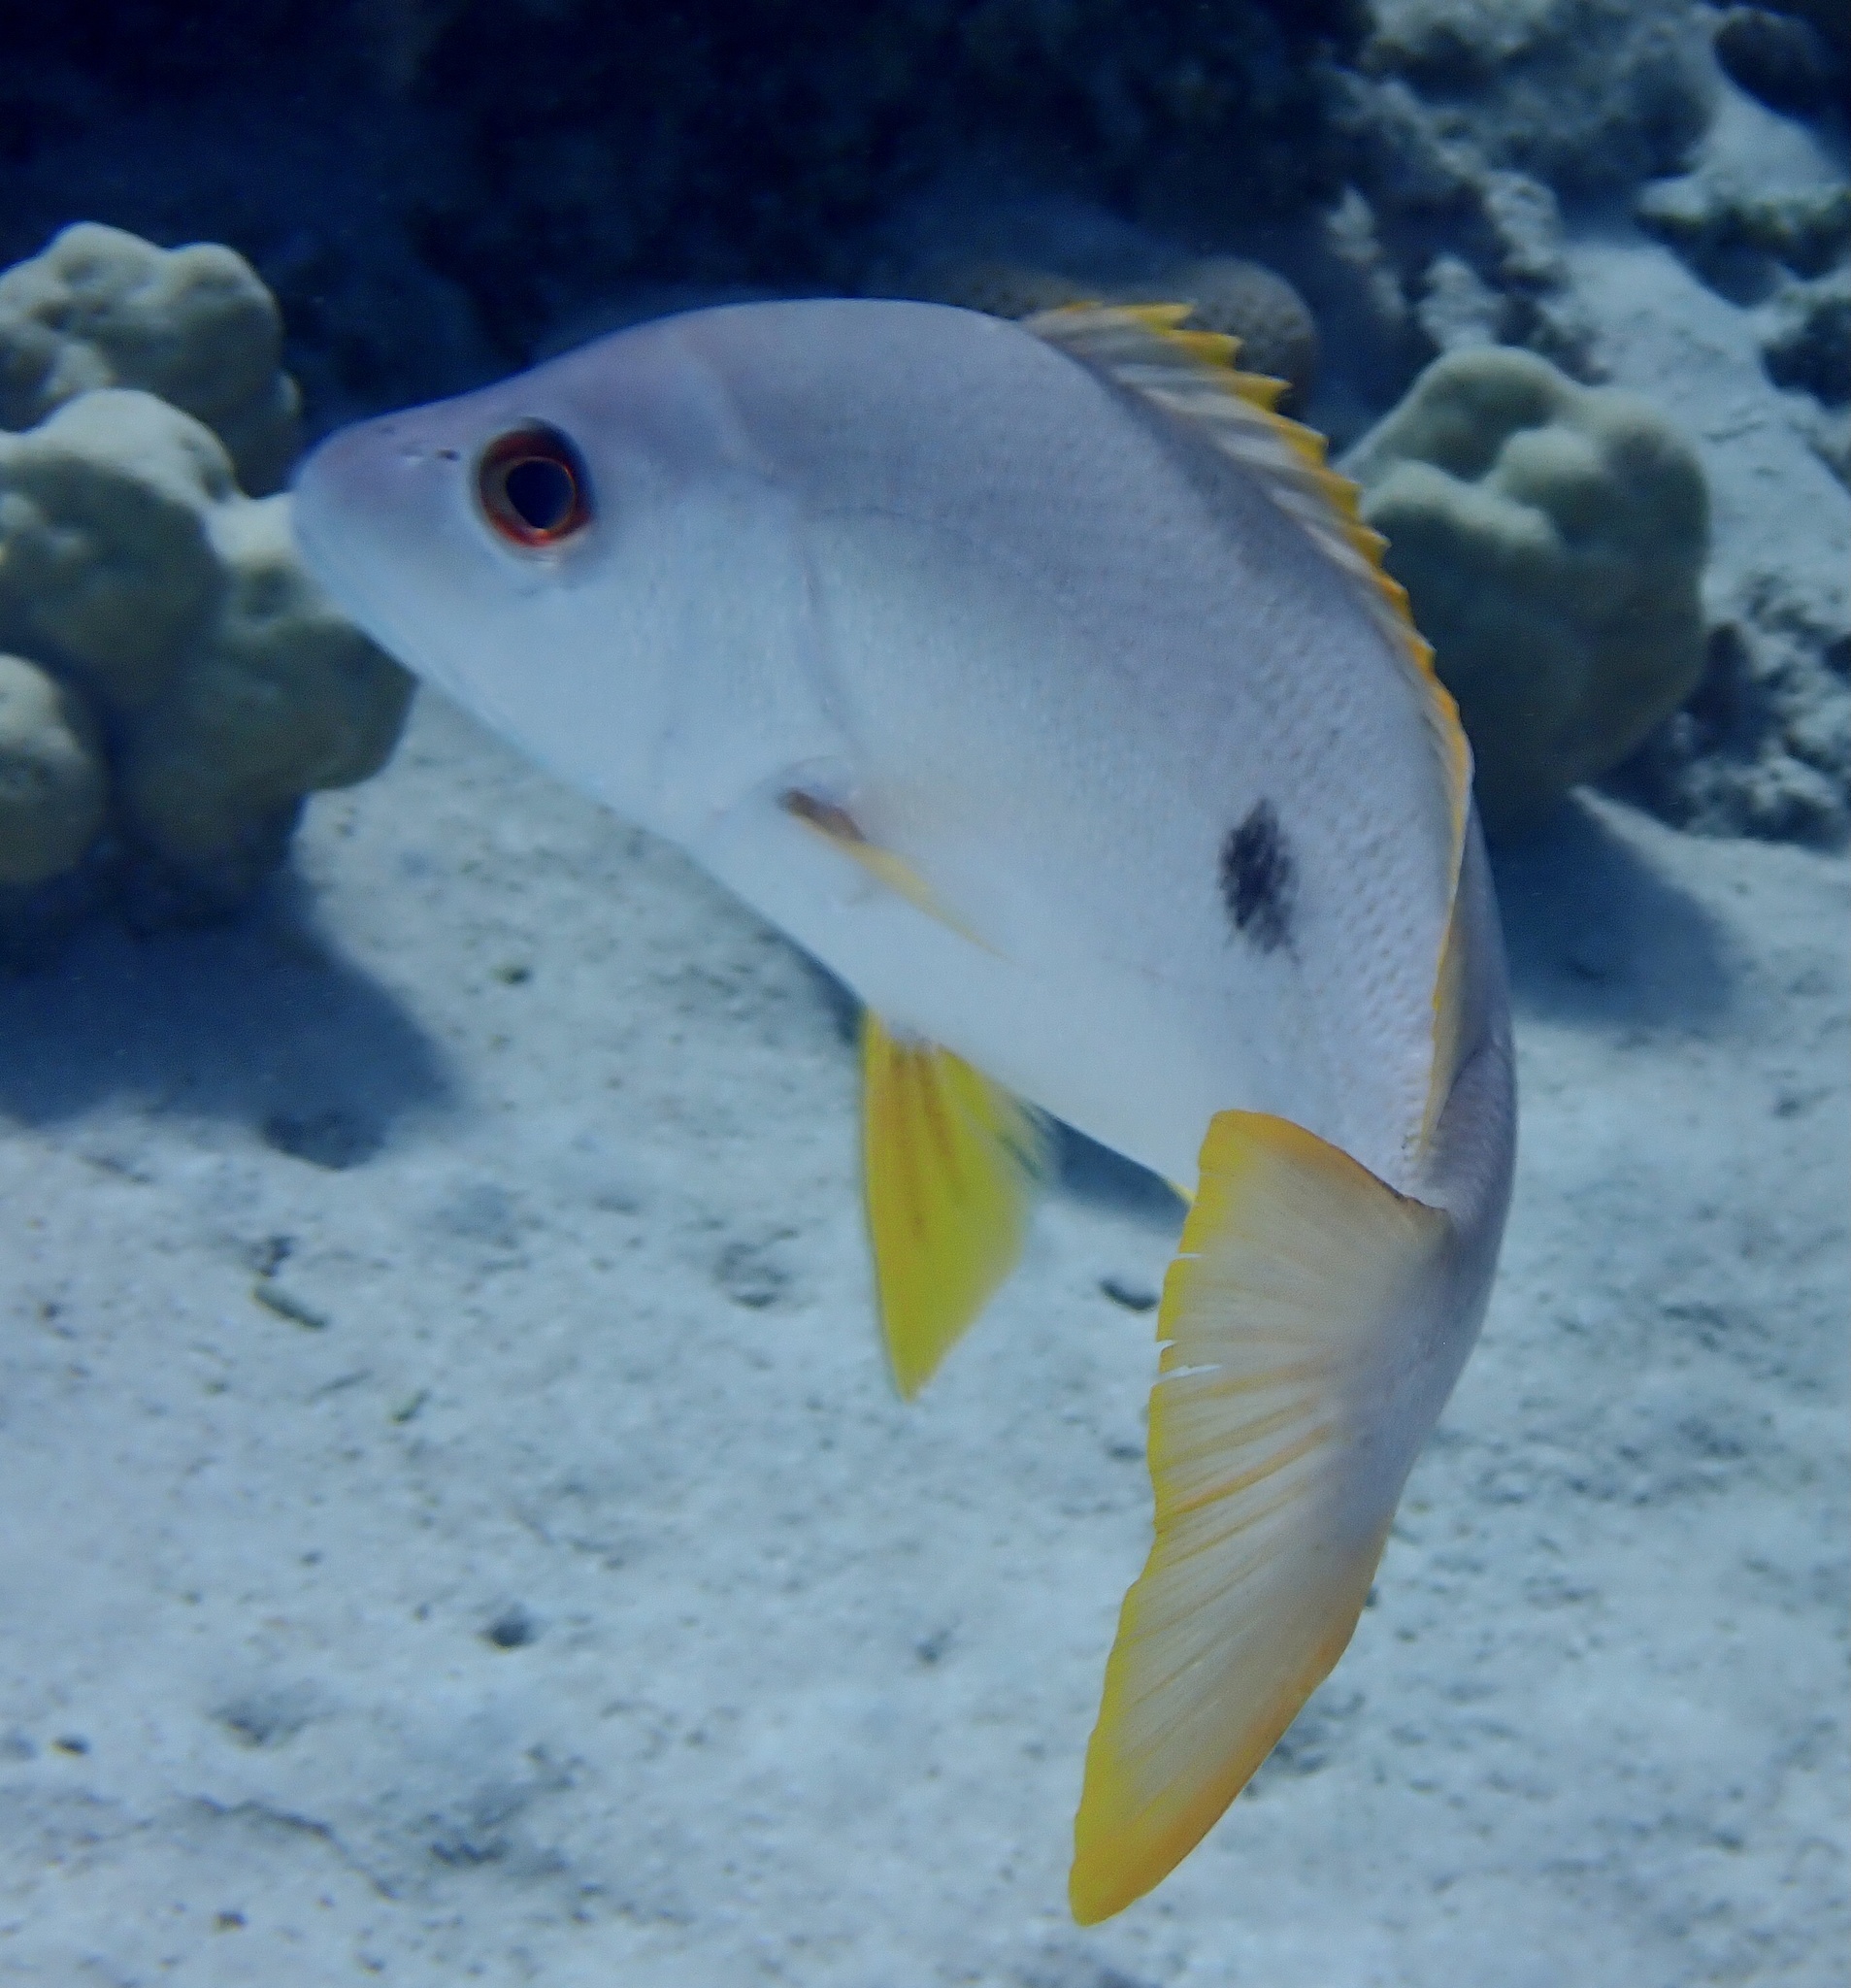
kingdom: Animalia
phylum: Chordata
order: Perciformes
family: Lutjanidae
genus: Lutjanus
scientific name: Lutjanus monostigma
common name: Onespot snapper
